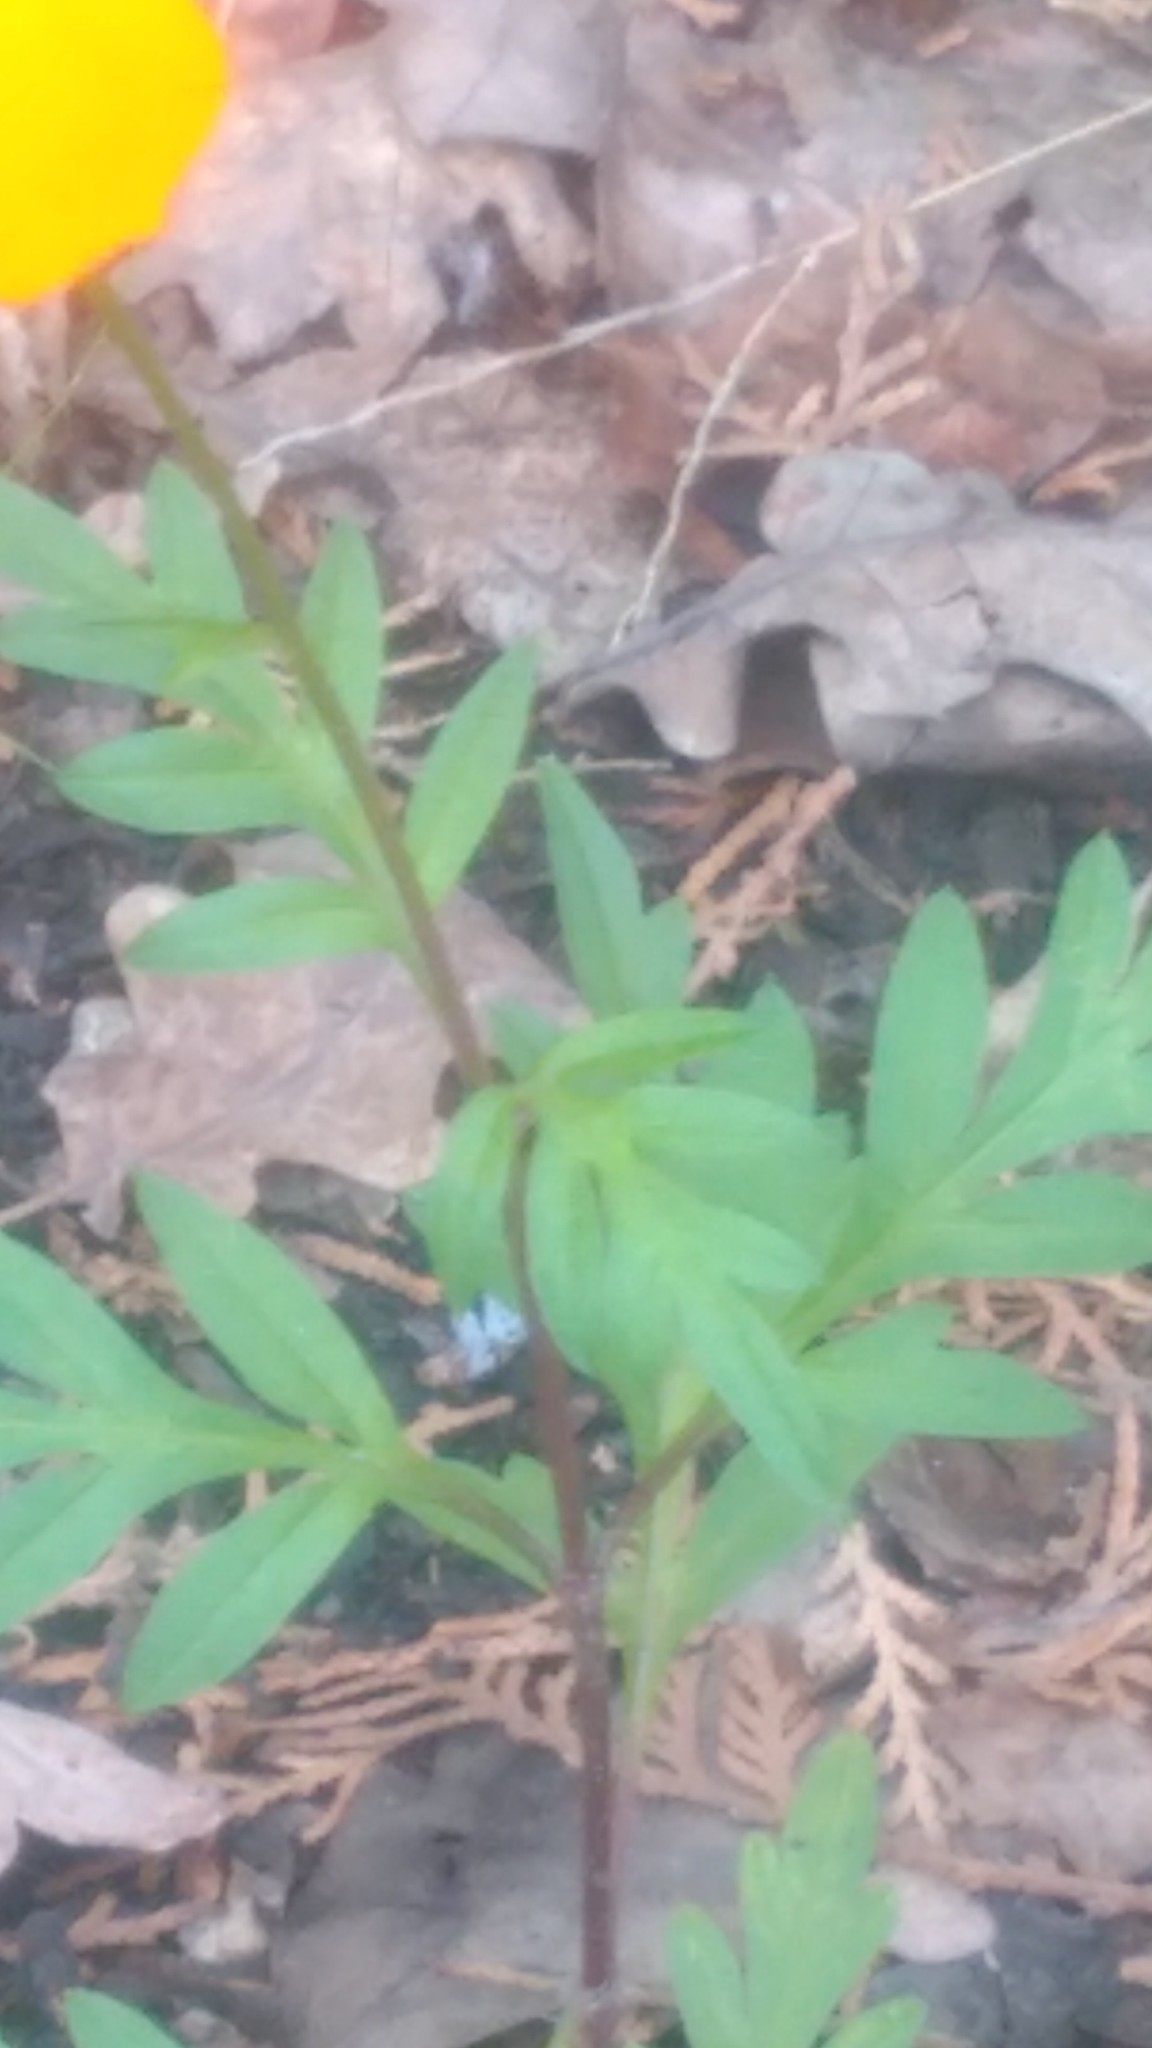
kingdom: Plantae
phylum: Tracheophyta
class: Magnoliopsida
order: Asterales
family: Asteraceae
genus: Cosmos
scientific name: Cosmos sulphureus
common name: Sulphur cosmos
